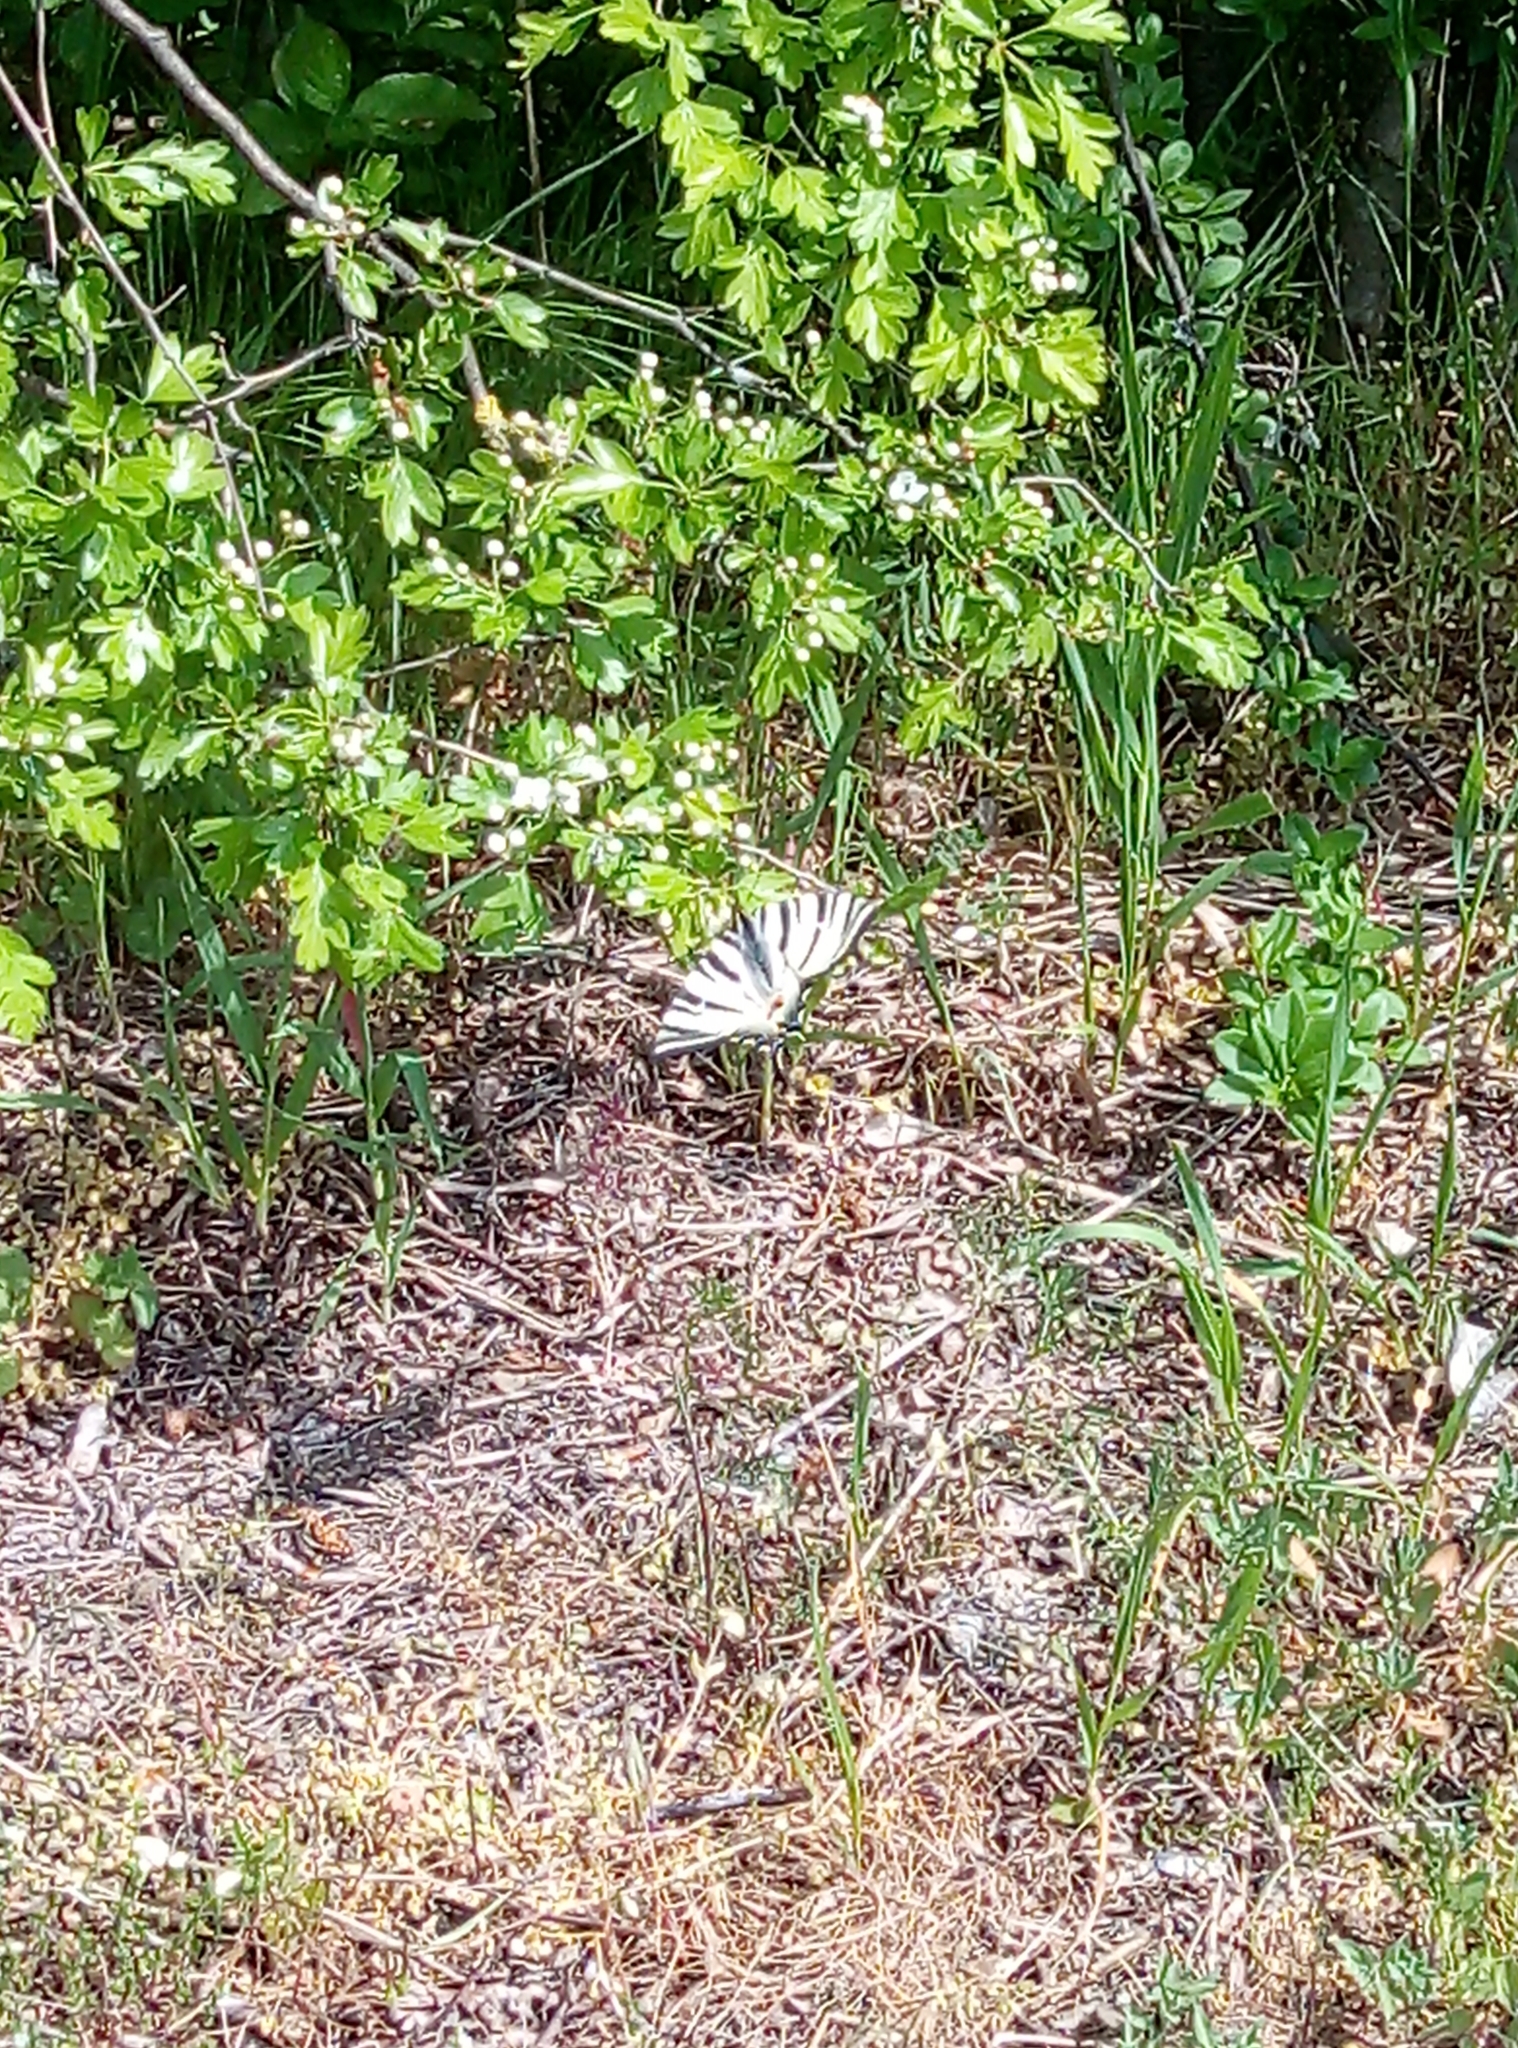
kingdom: Animalia
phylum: Arthropoda
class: Insecta
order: Lepidoptera
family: Papilionidae
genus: Iphiclides
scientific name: Iphiclides podalirius
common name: Scarce swallowtail
